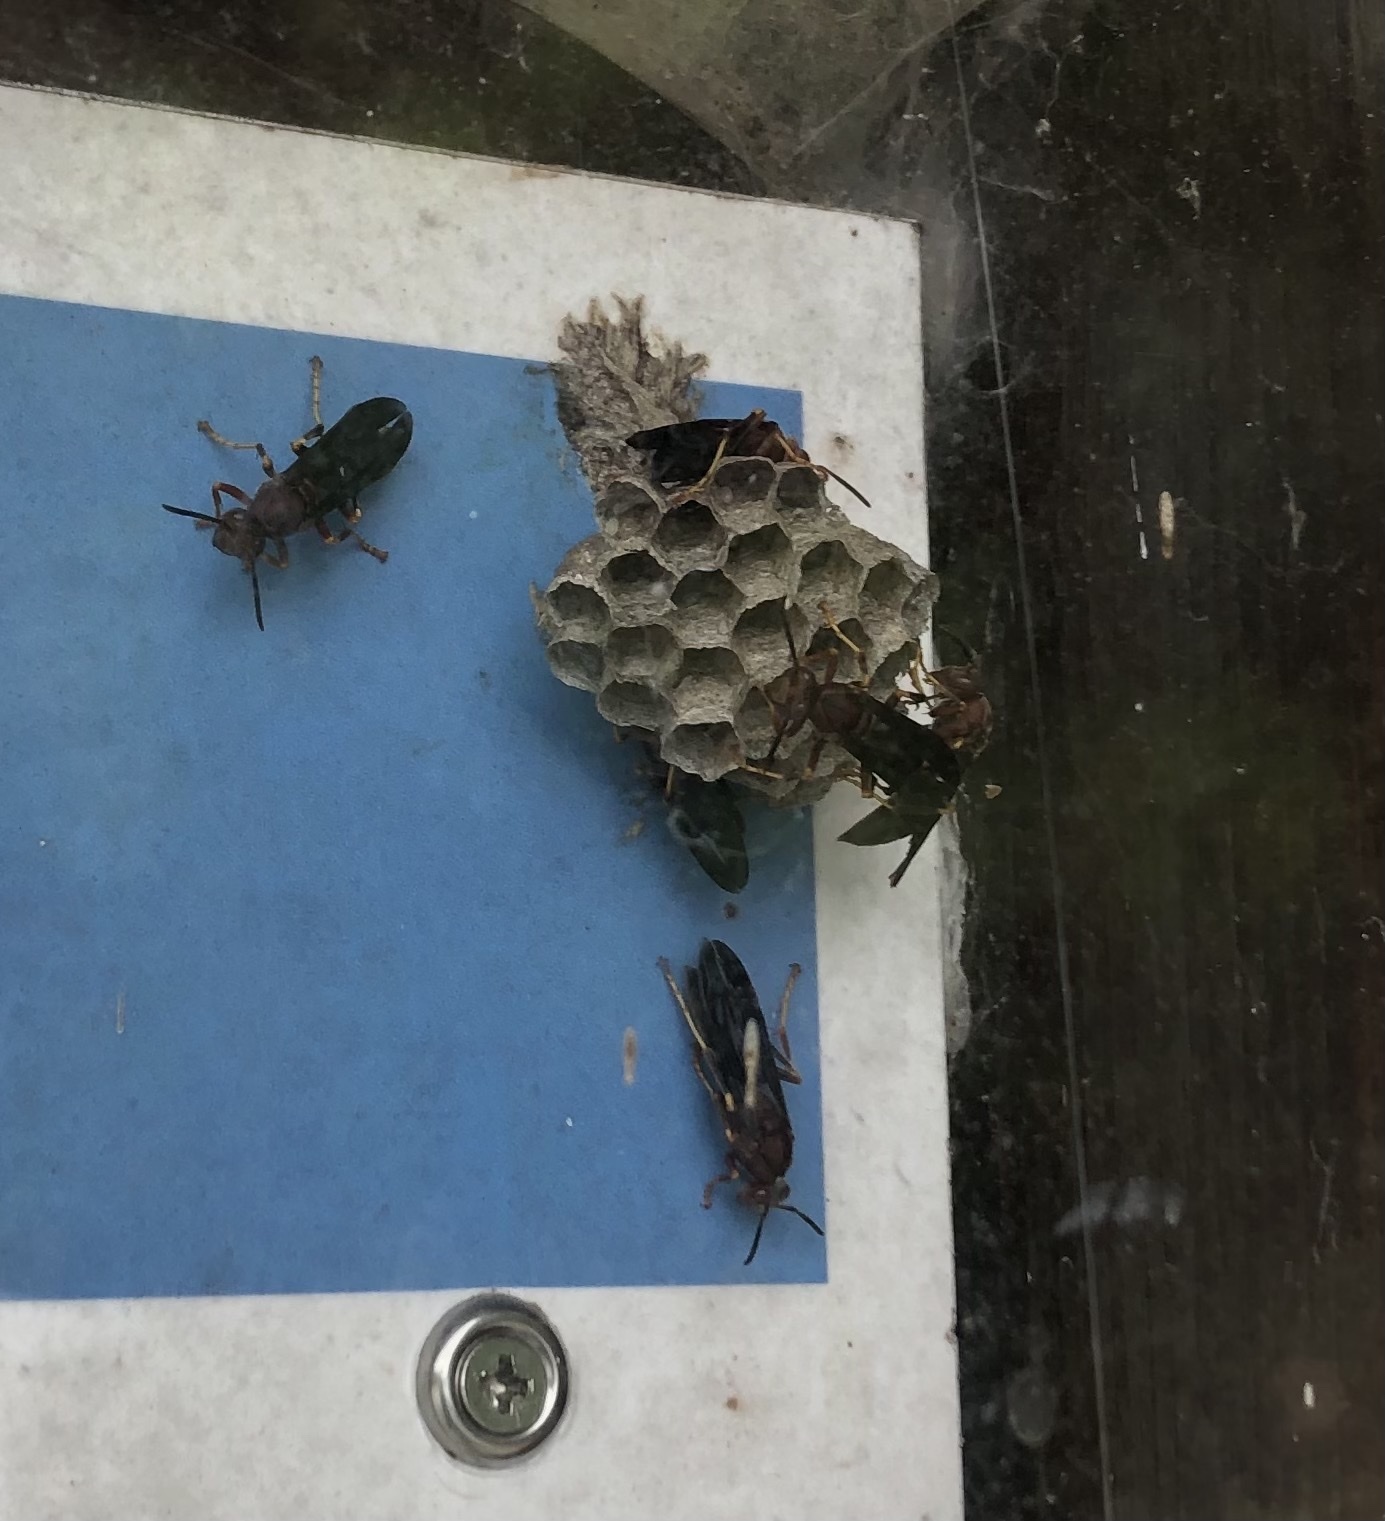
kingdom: Animalia
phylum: Arthropoda
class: Insecta
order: Hymenoptera
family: Eumenidae
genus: Polistes
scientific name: Polistes metricus
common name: Metric paper wasp
